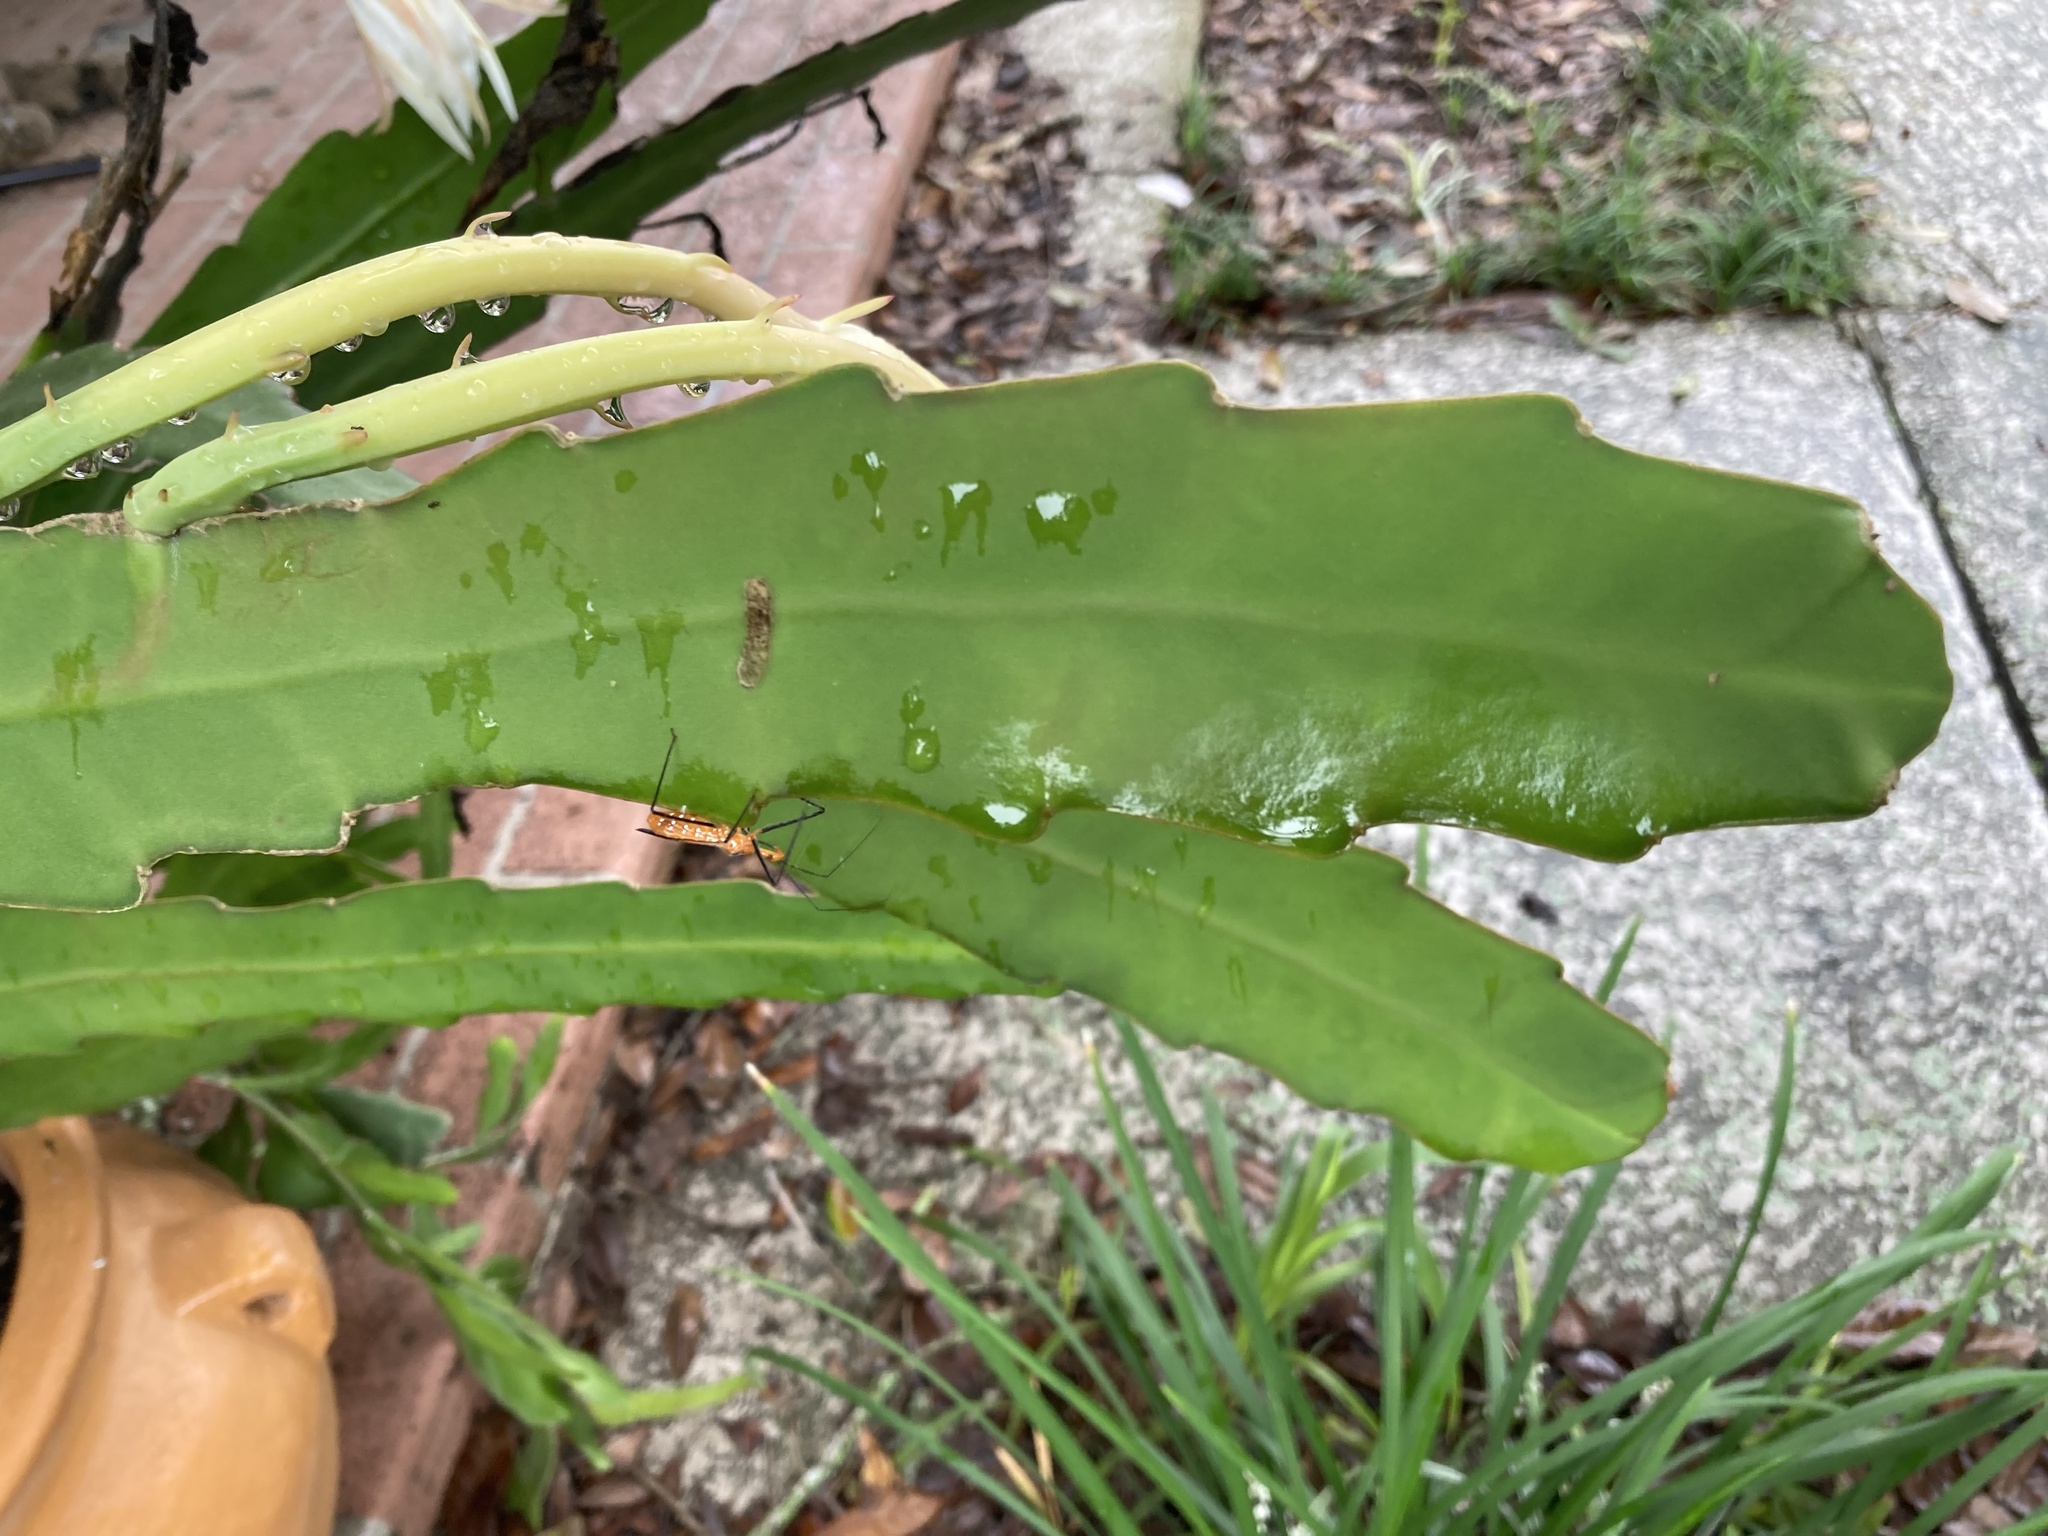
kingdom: Animalia
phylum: Arthropoda
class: Insecta
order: Hemiptera
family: Reduviidae
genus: Zelus
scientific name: Zelus longipes
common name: Milkweed assassin bug
